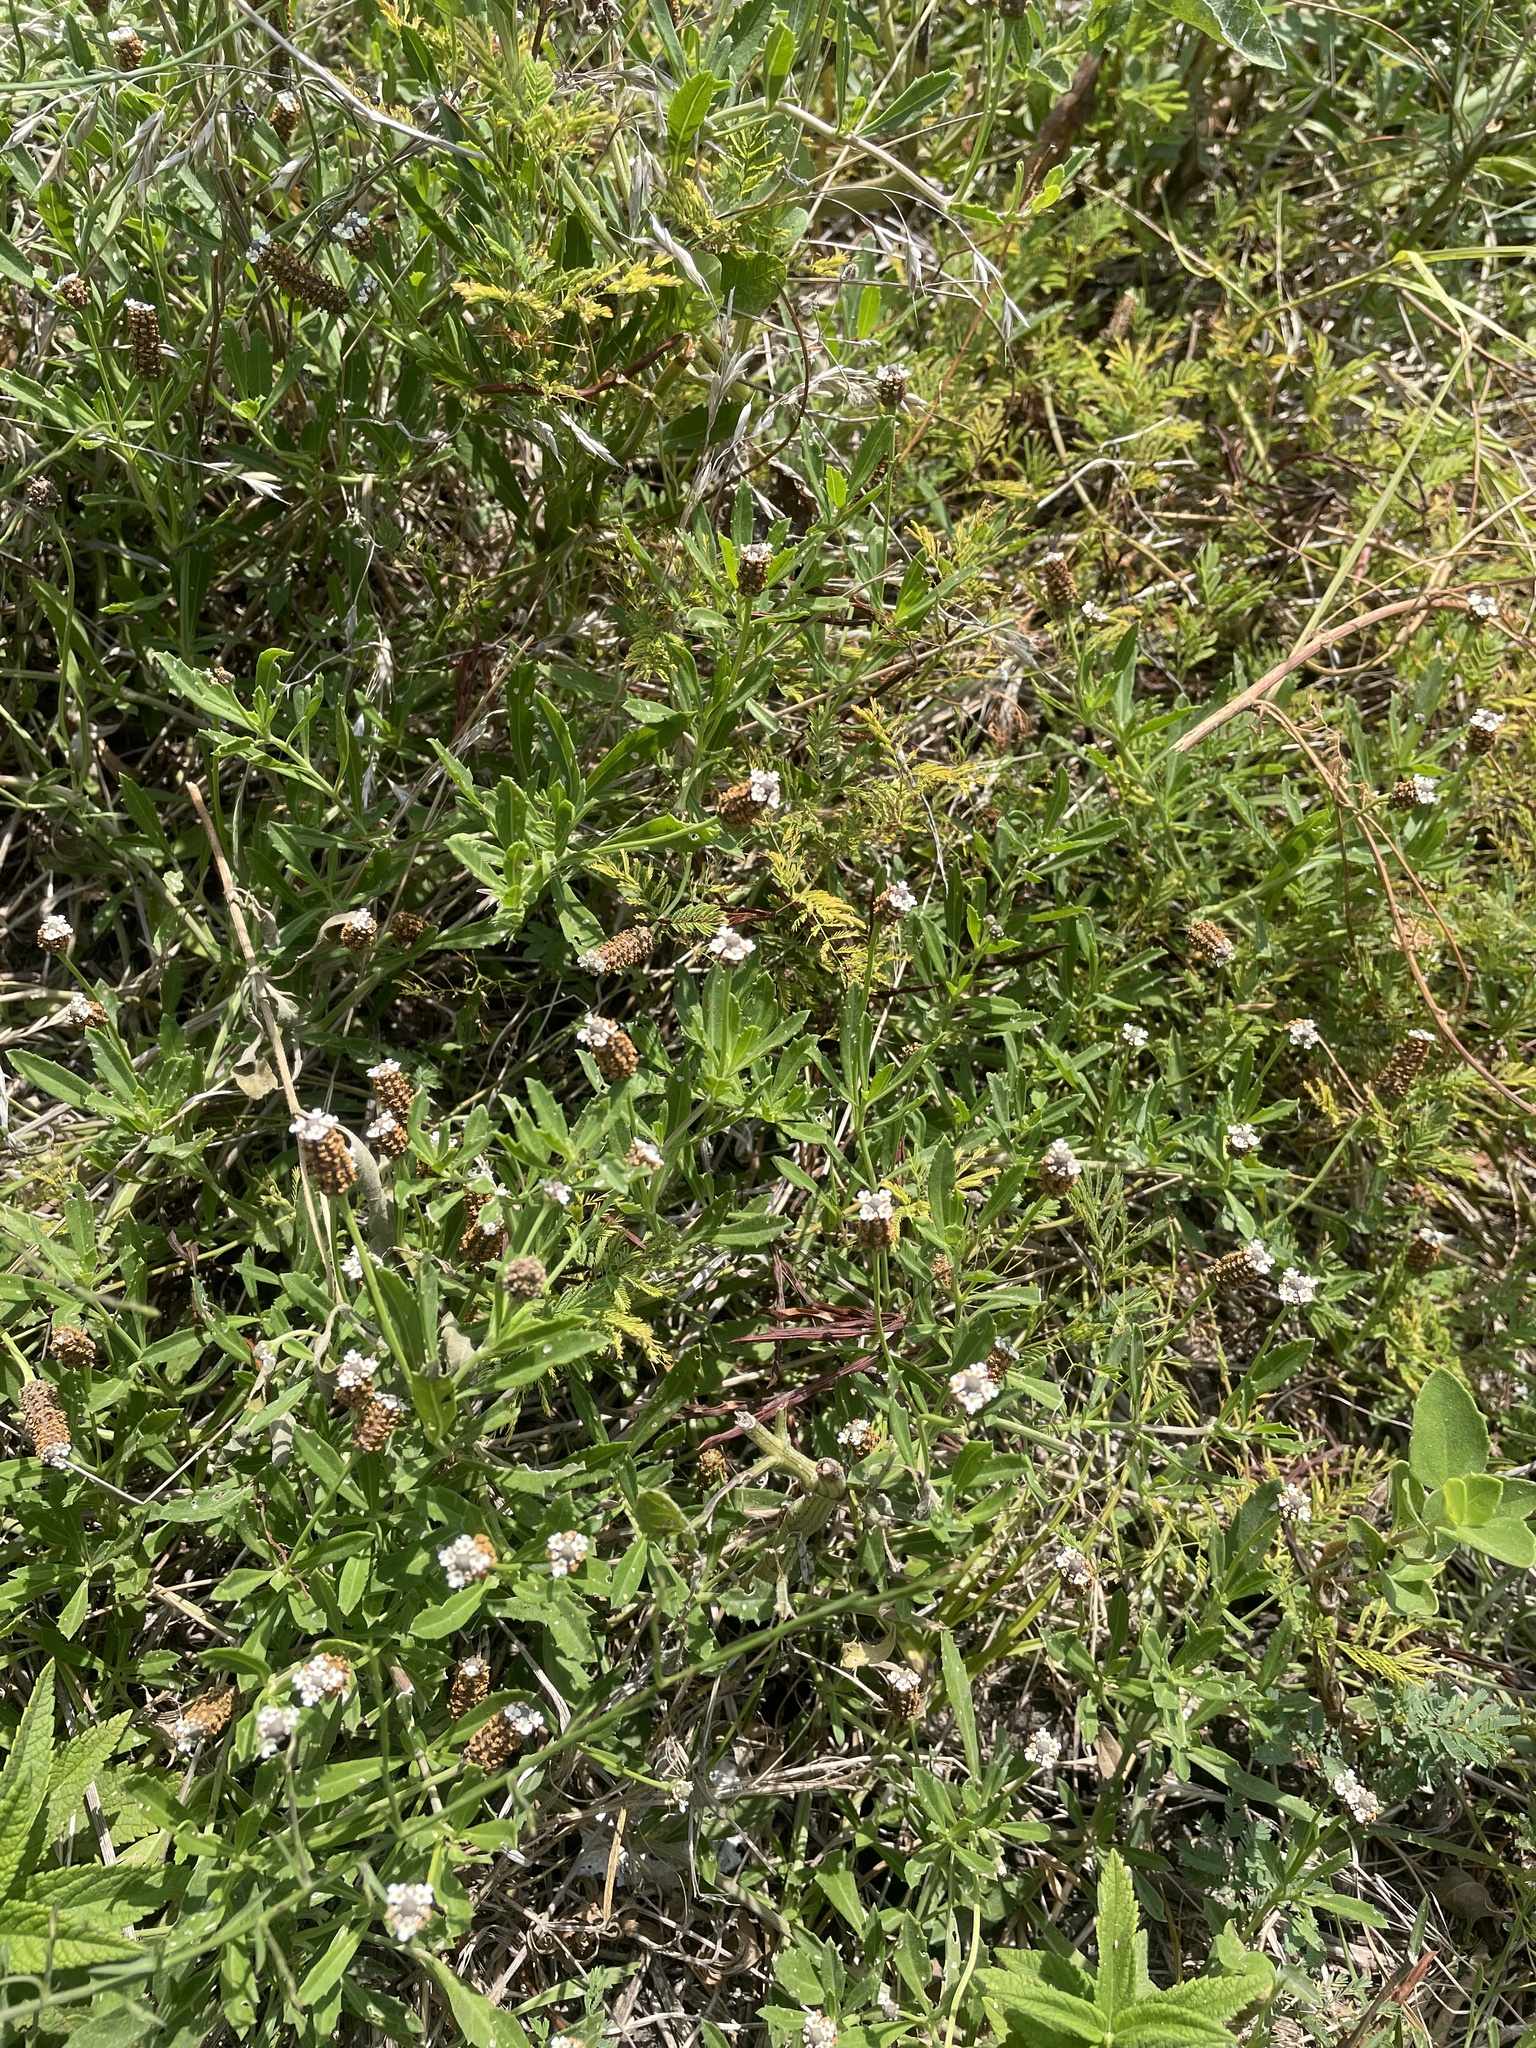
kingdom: Plantae
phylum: Tracheophyta
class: Magnoliopsida
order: Lamiales
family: Verbenaceae
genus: Phyla
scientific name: Phyla nodiflora
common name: Frogfruit
